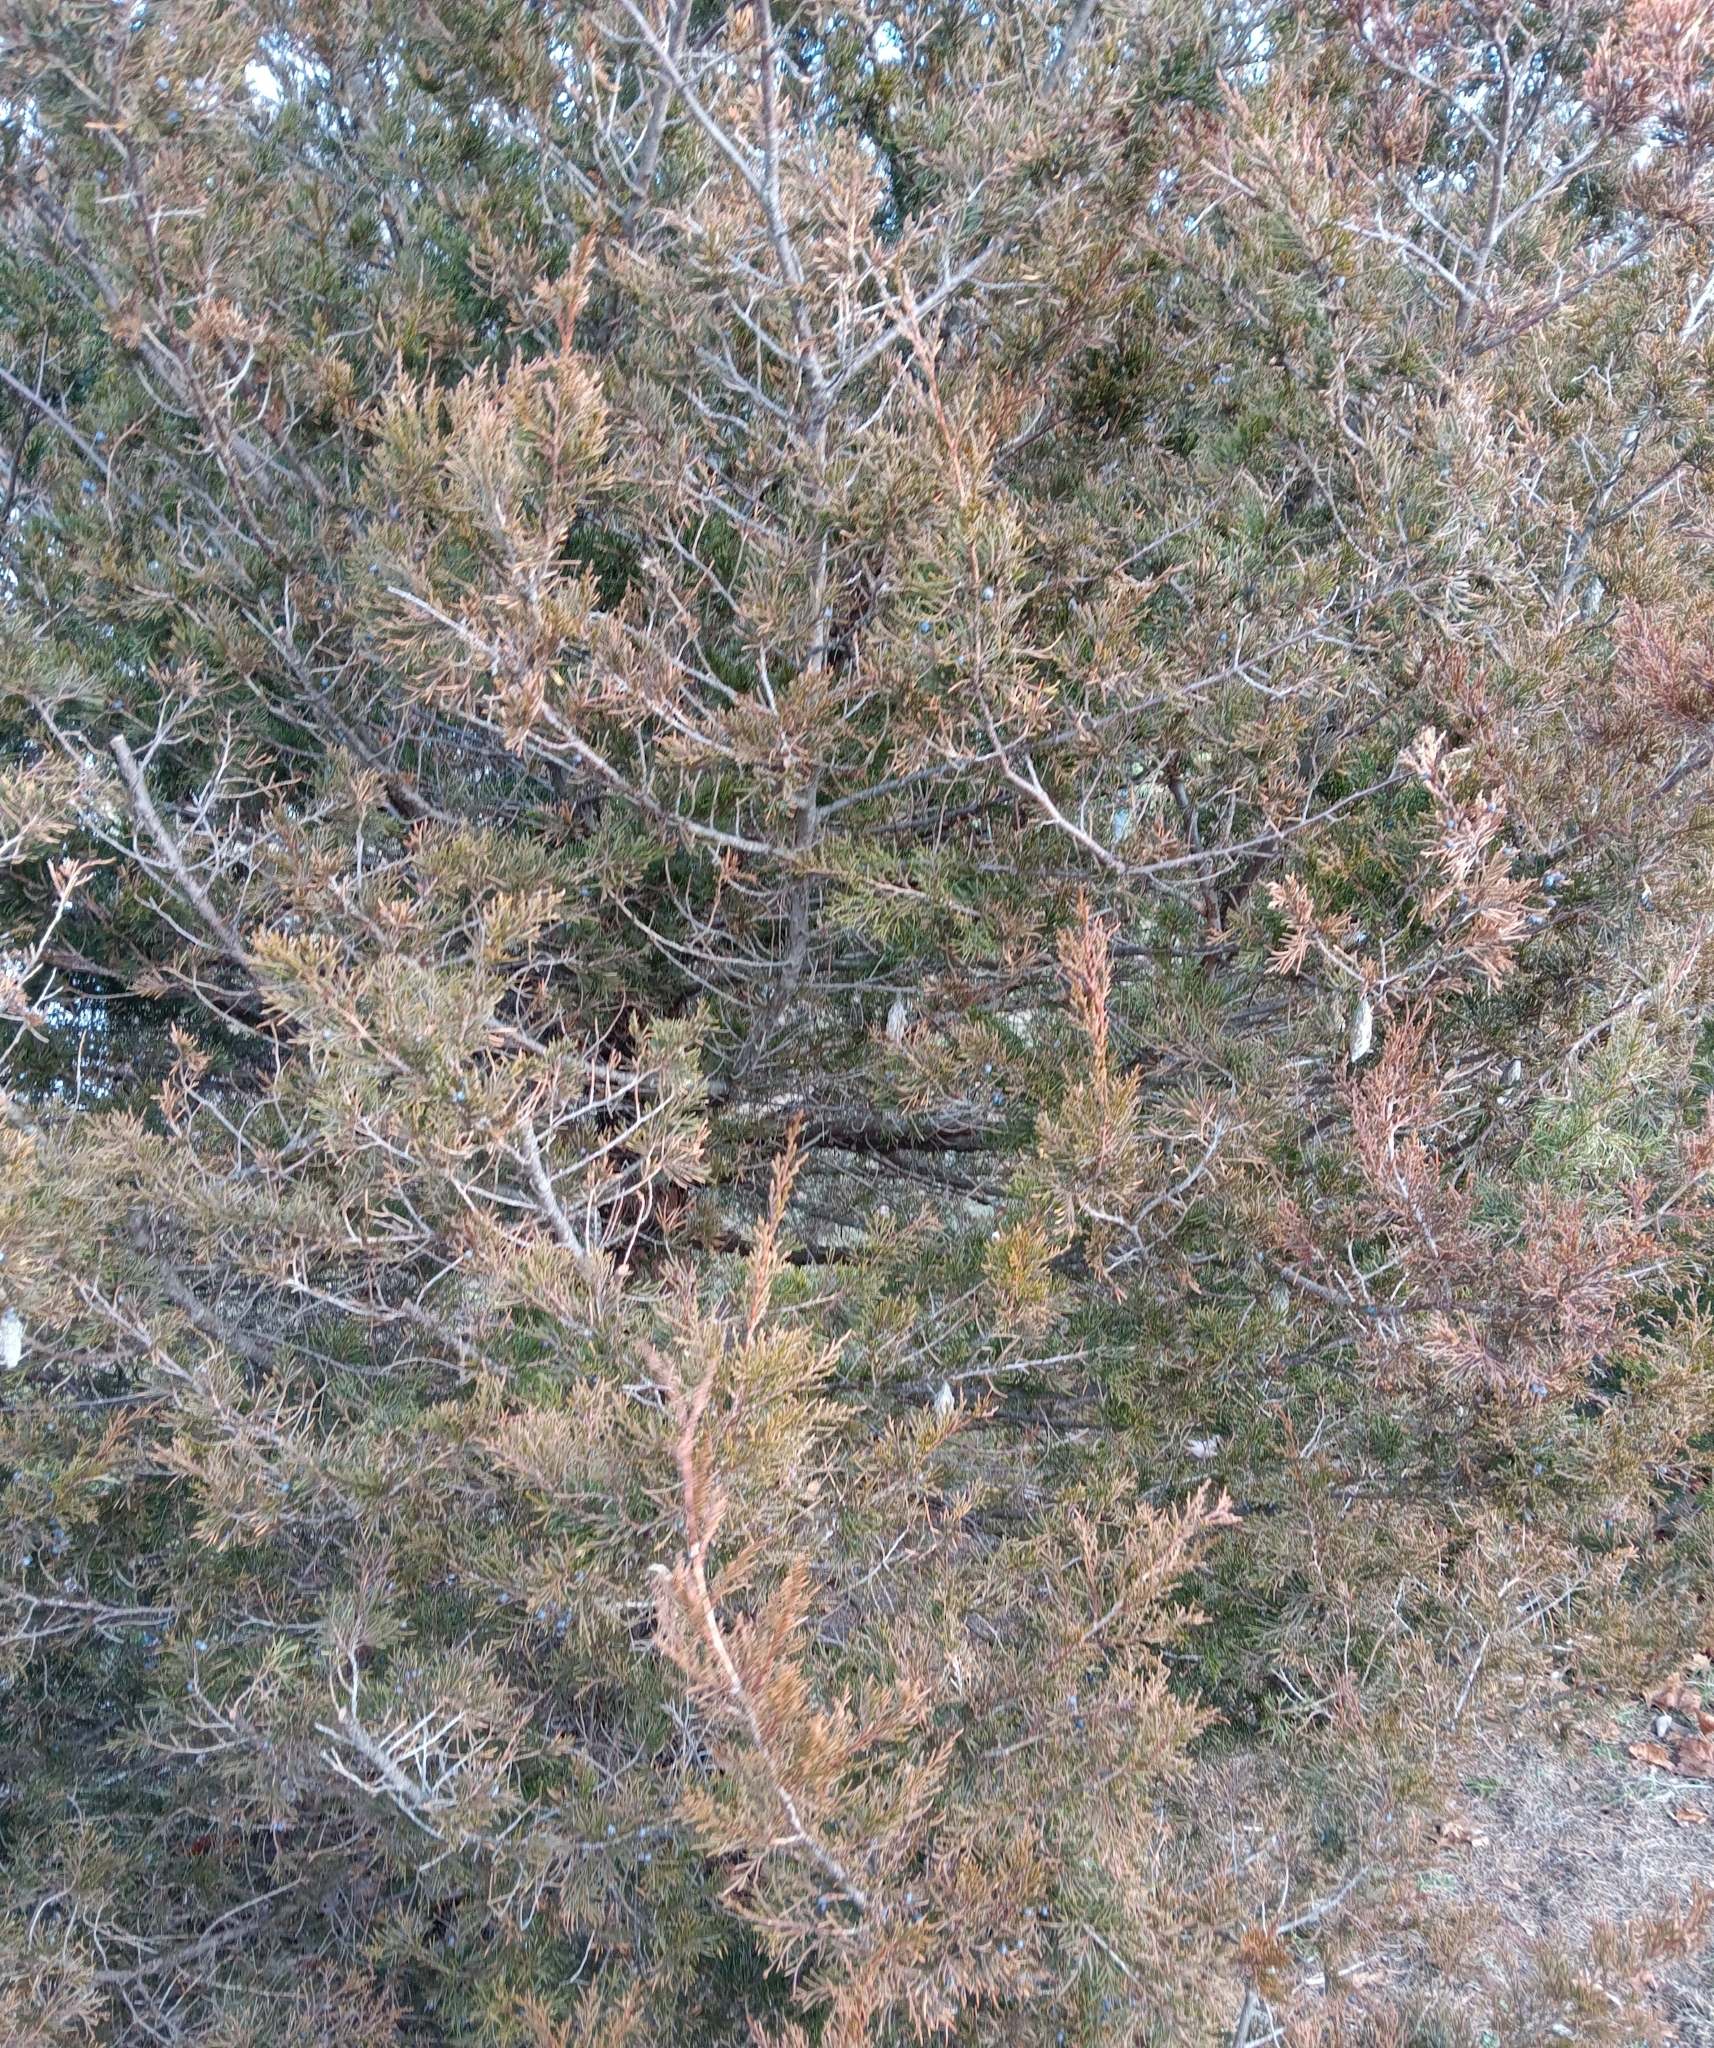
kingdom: Animalia
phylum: Arthropoda
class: Insecta
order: Lepidoptera
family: Psychidae
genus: Thyridopteryx
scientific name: Thyridopteryx ephemeraeformis
